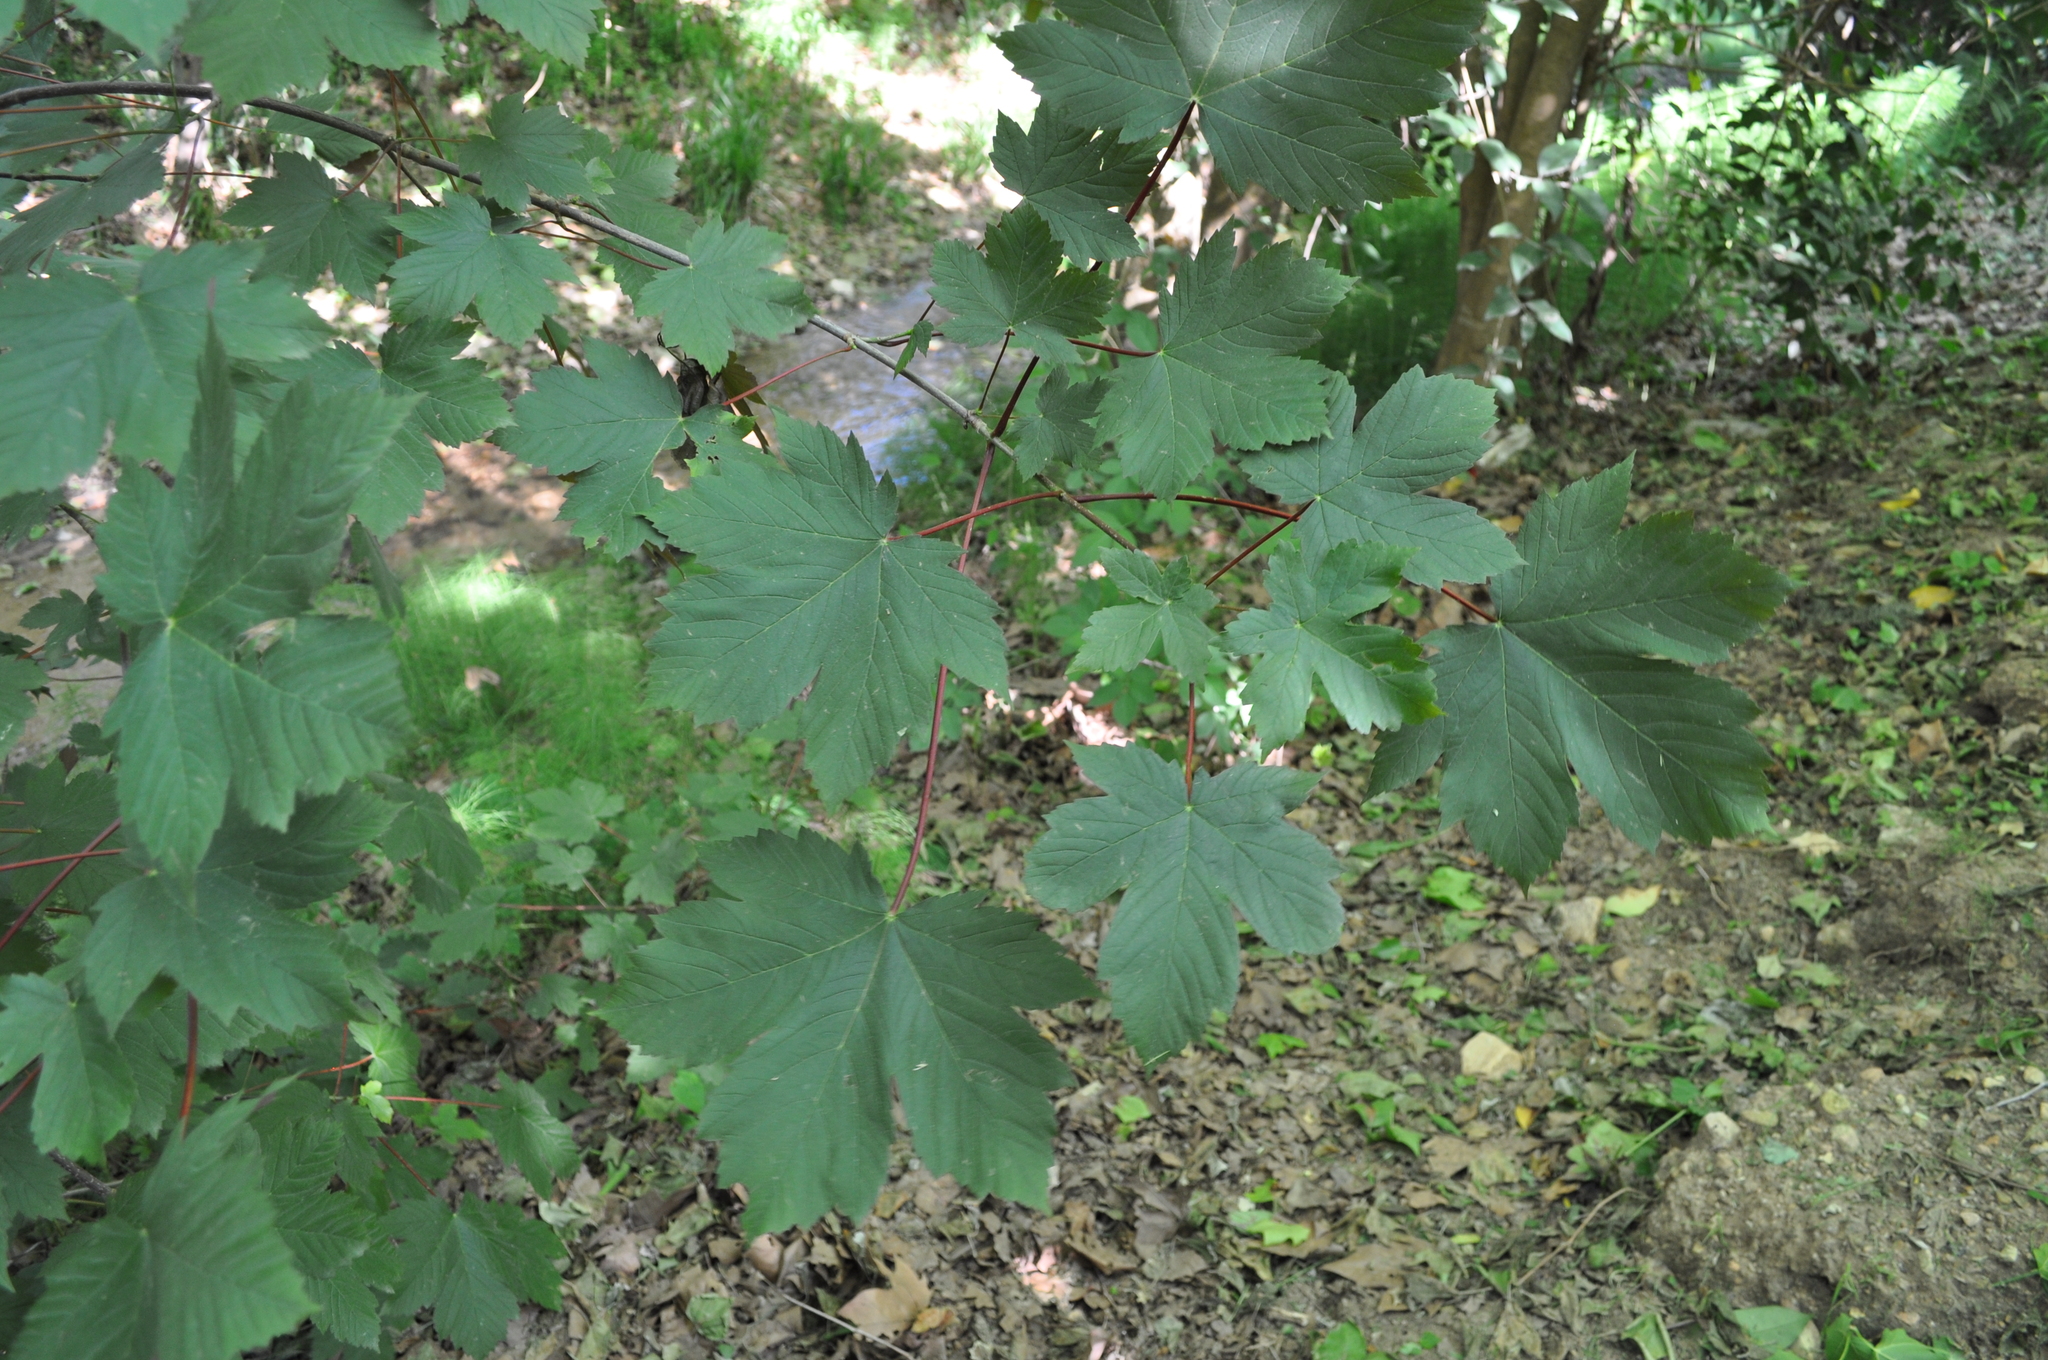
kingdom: Plantae
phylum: Tracheophyta
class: Magnoliopsida
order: Sapindales
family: Sapindaceae
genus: Acer
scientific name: Acer pseudoplatanus
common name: Sycamore
